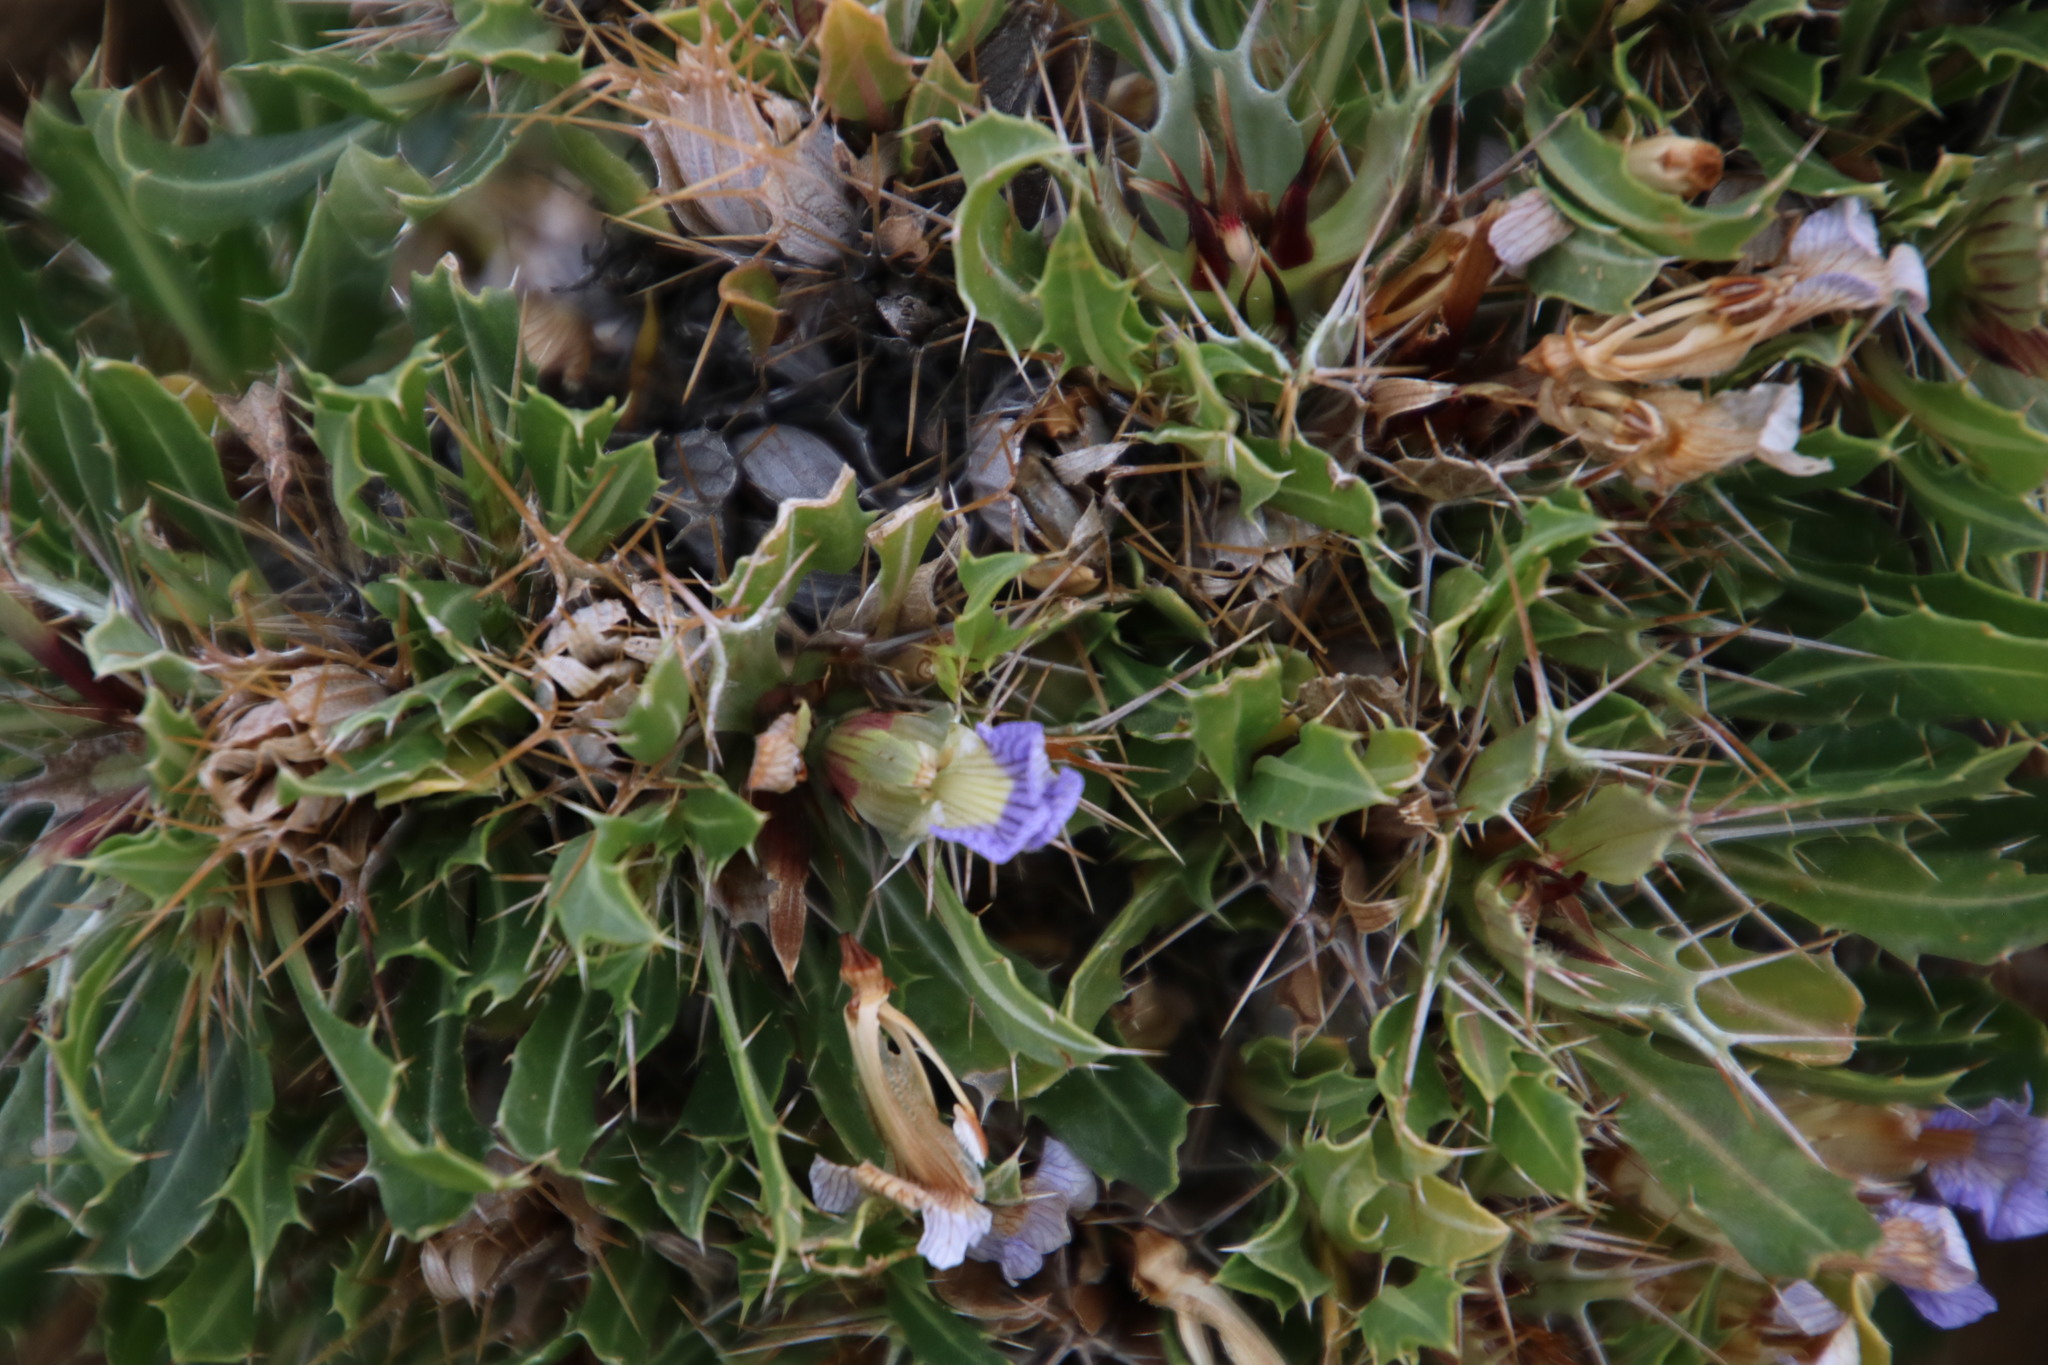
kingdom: Plantae
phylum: Tracheophyta
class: Magnoliopsida
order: Lamiales
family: Acanthaceae
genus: Blepharis
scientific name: Blepharis mitrata
